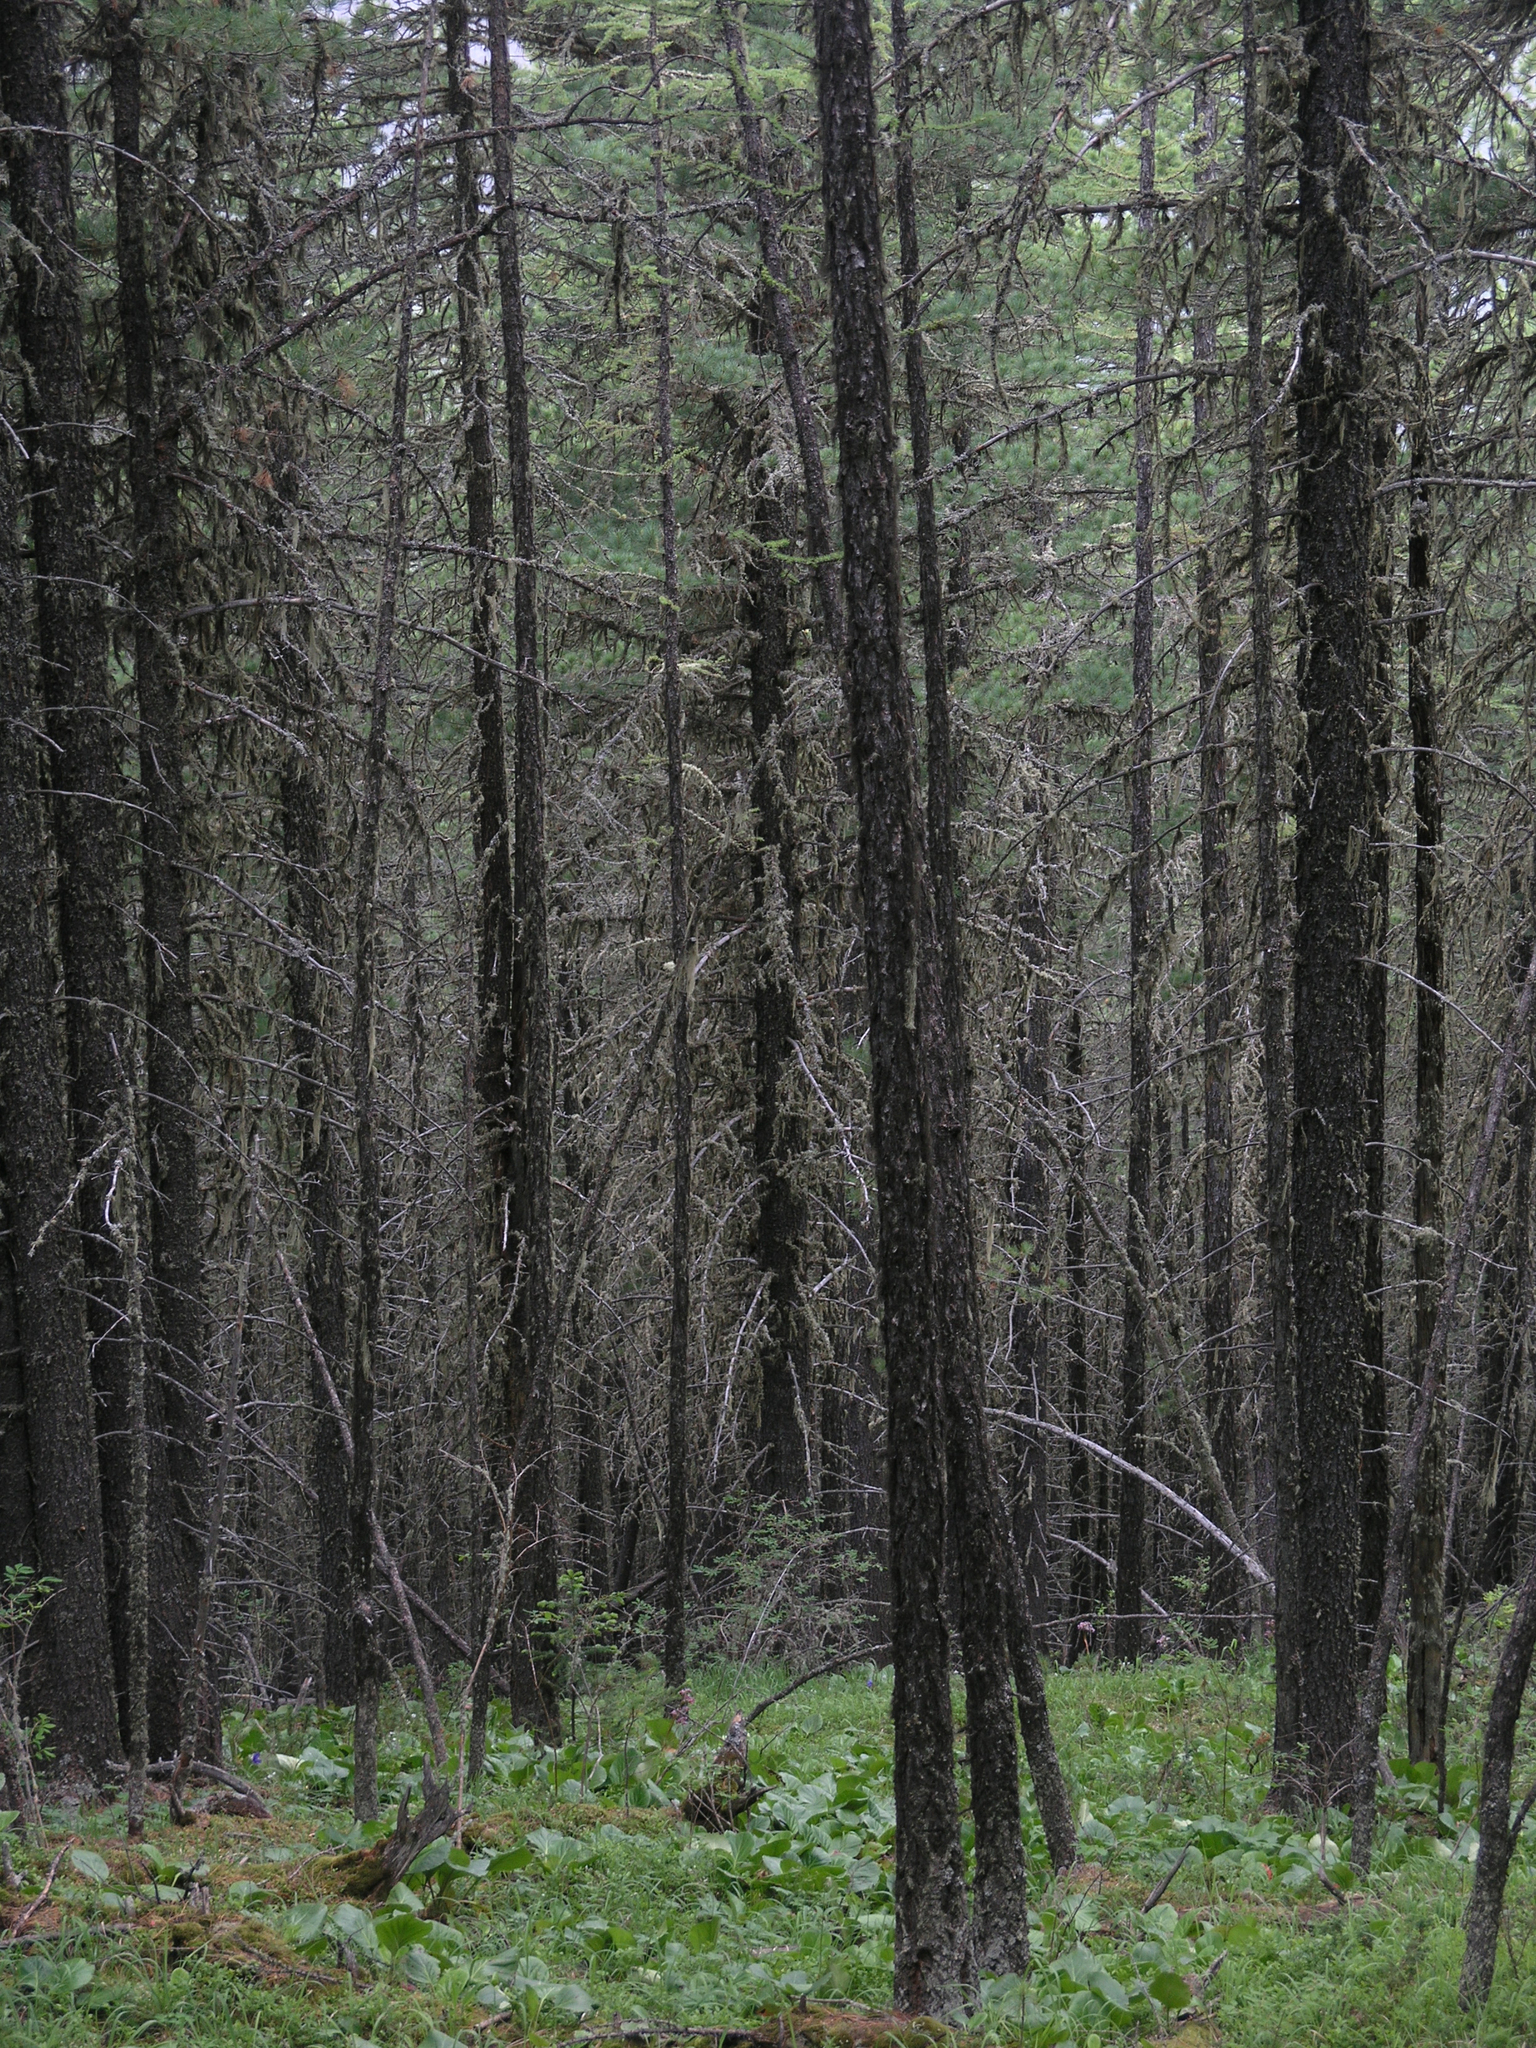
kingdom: Plantae
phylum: Tracheophyta
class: Pinopsida
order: Pinales
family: Pinaceae
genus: Picea
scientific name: Picea obovata
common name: Siberian spruce
